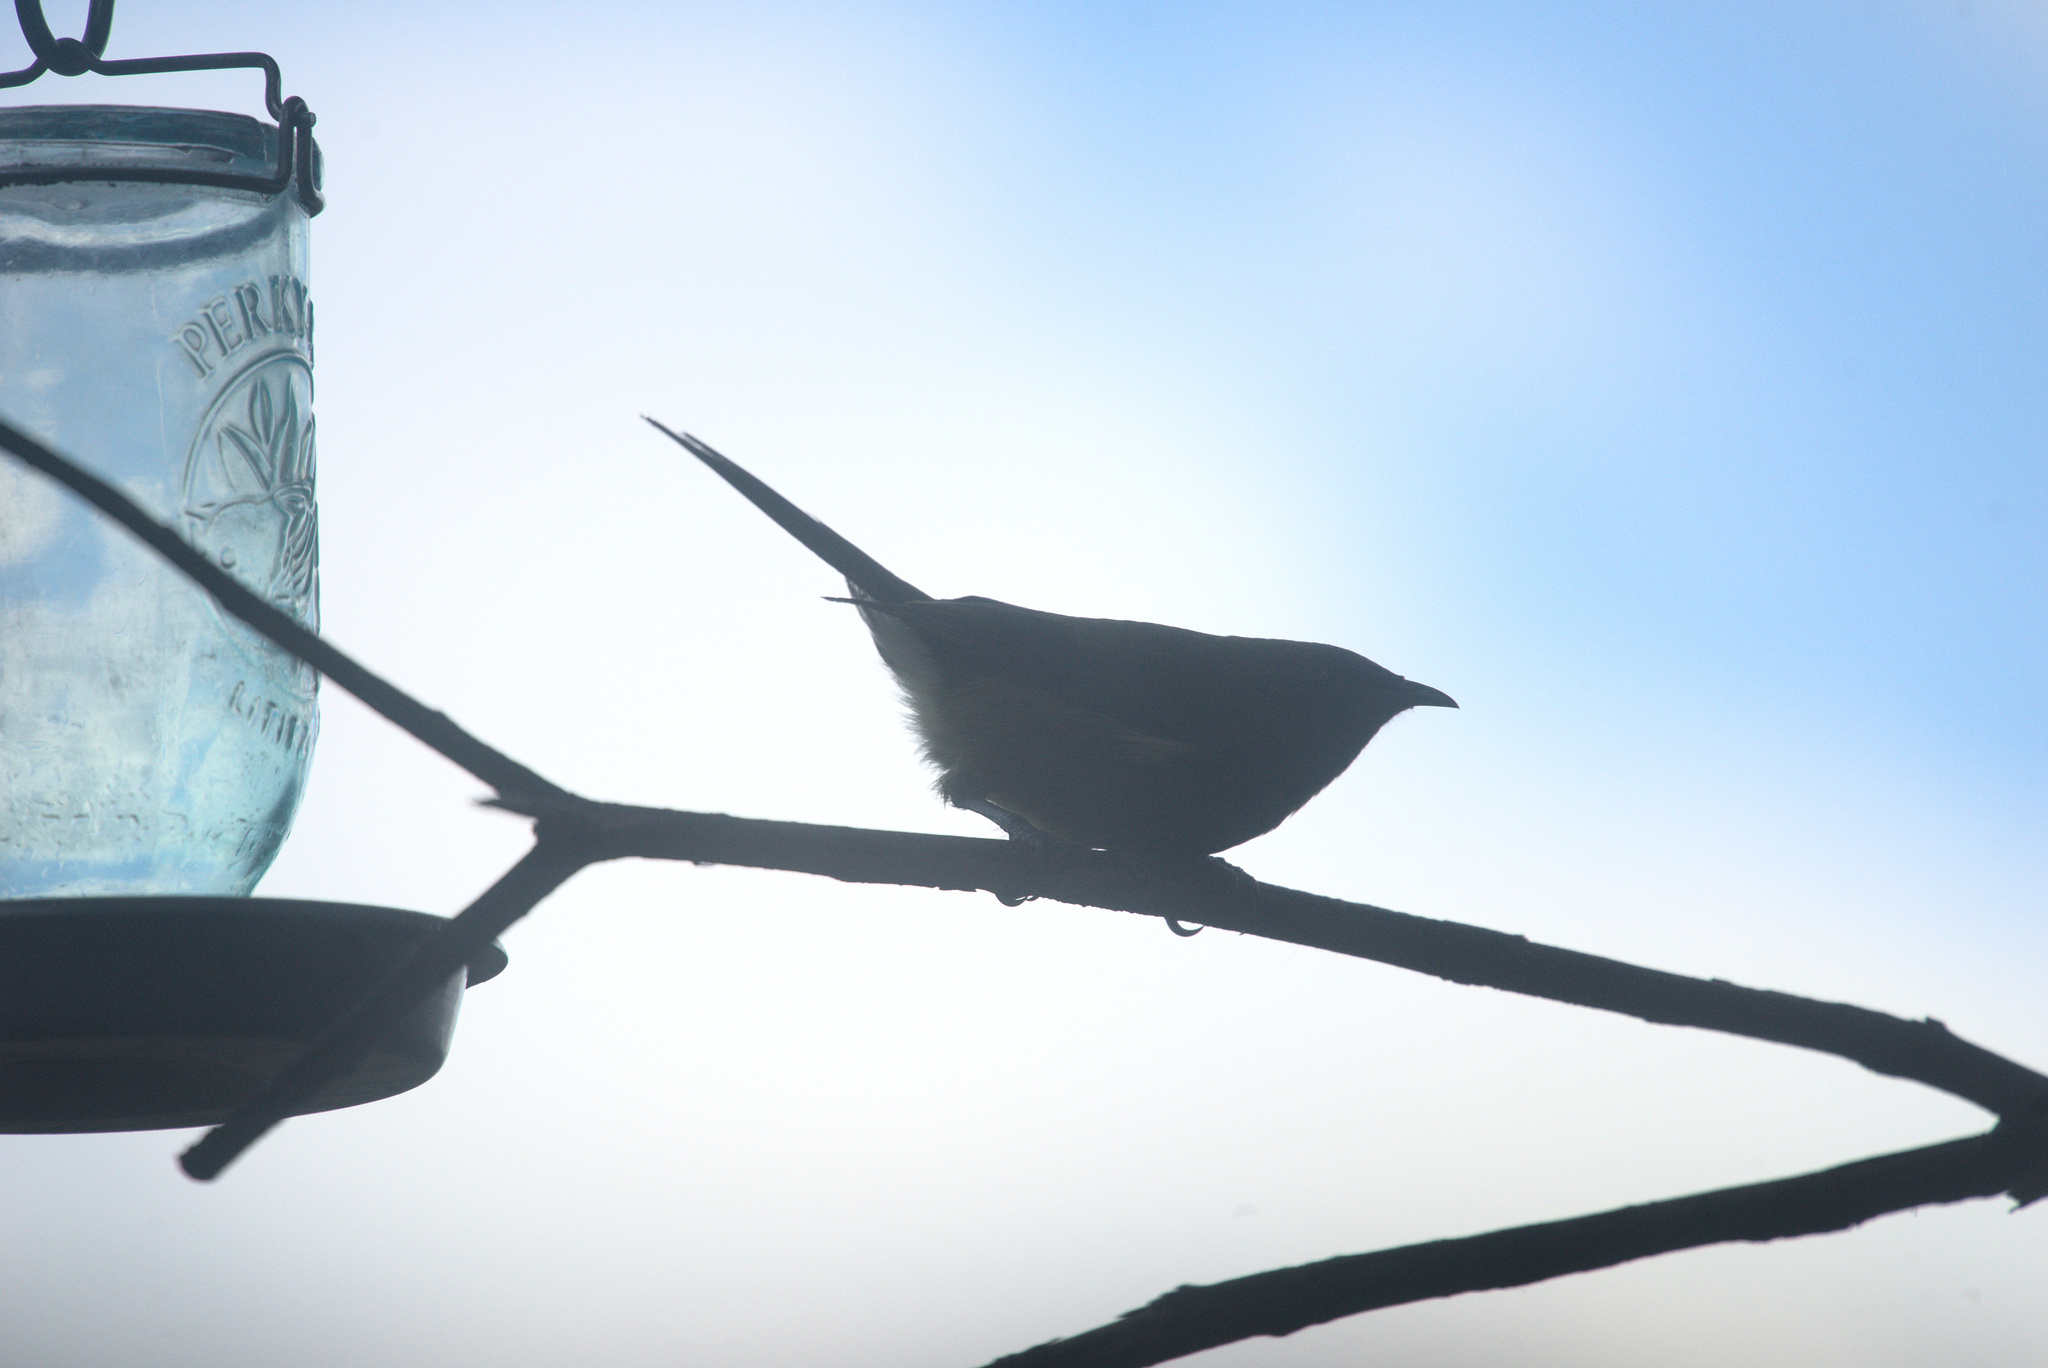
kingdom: Animalia
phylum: Chordata
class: Aves
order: Passeriformes
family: Meliphagidae
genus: Anthornis
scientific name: Anthornis melanura
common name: New zealand bellbird
